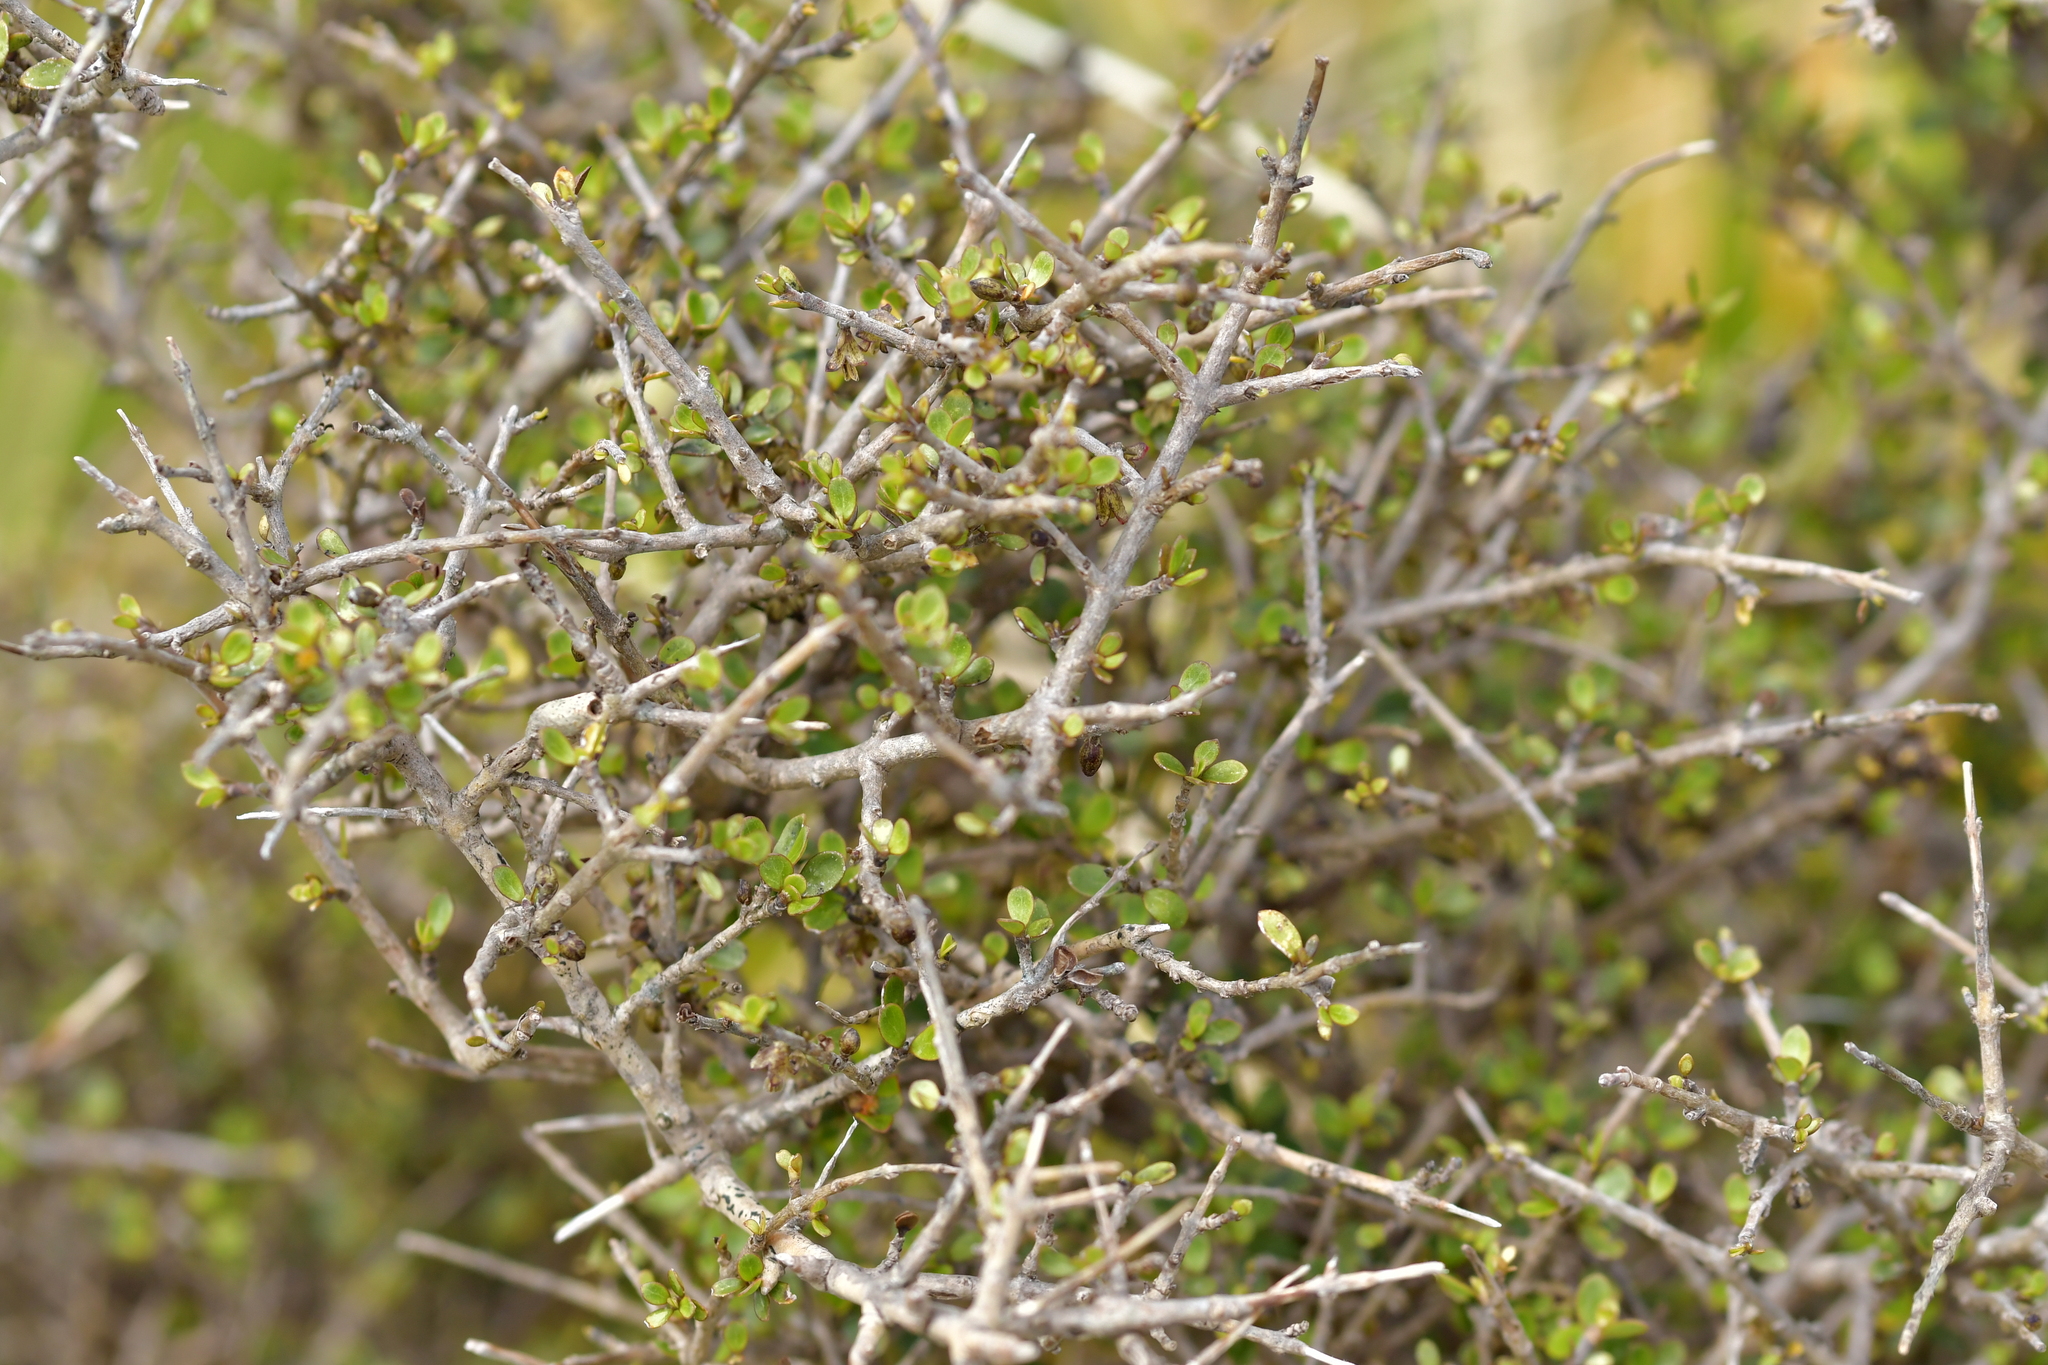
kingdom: Plantae
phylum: Tracheophyta
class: Magnoliopsida
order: Gentianales
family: Rubiaceae
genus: Coprosma
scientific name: Coprosma dumosa
